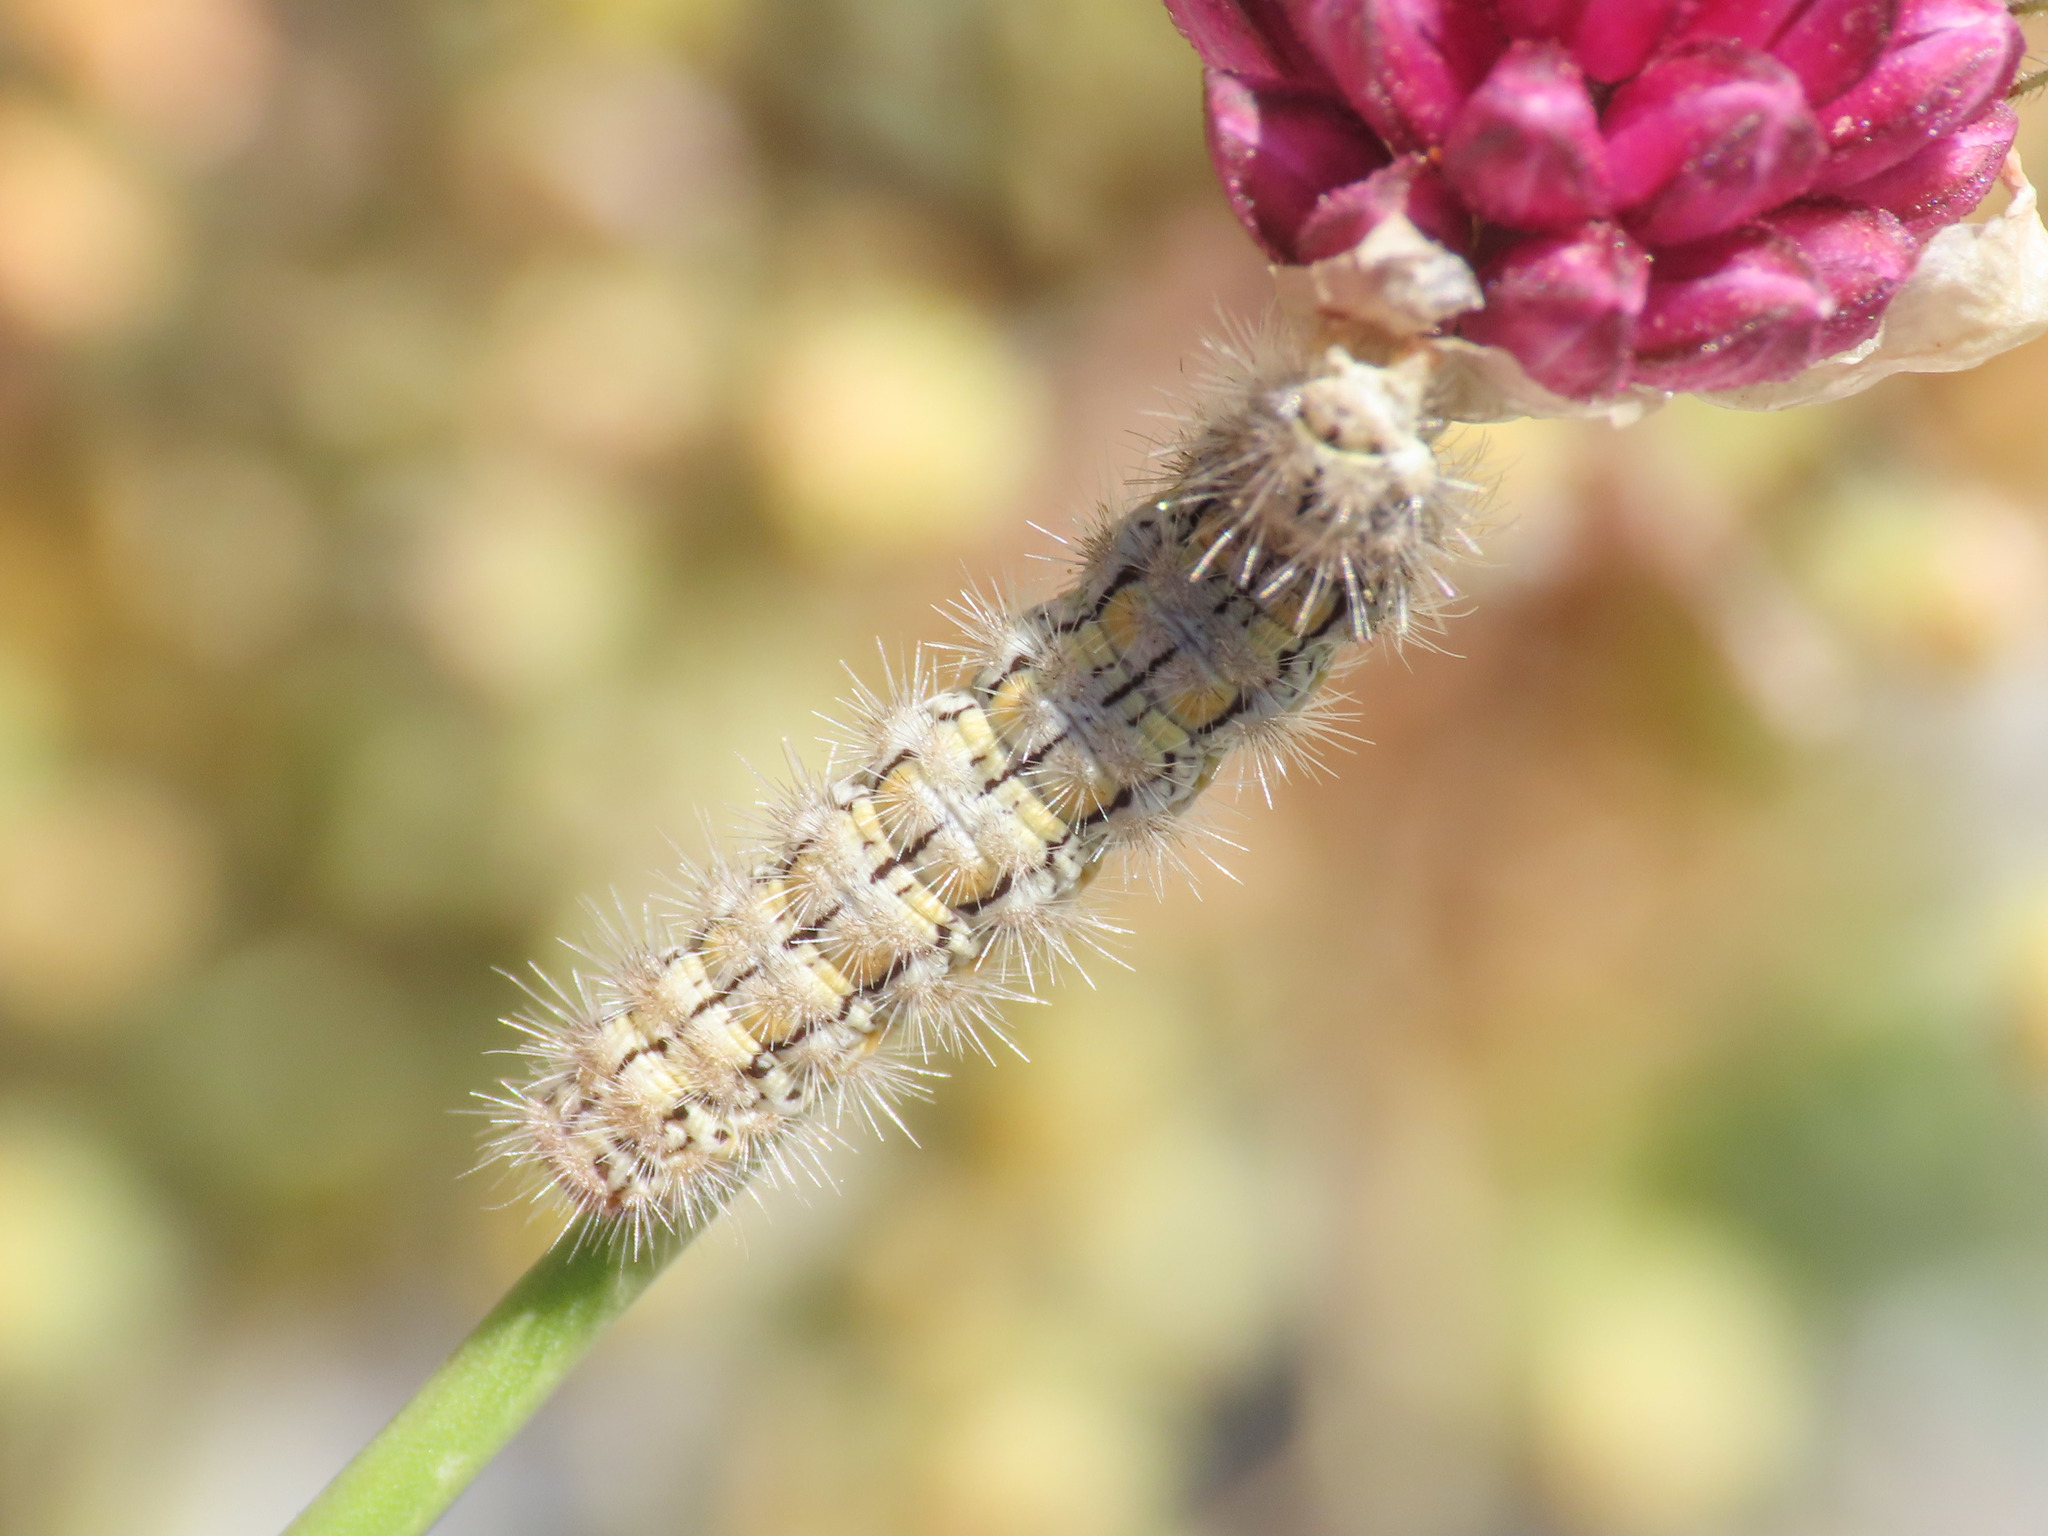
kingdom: Animalia
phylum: Arthropoda
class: Insecta
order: Lepidoptera
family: Erebidae
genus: Manulea
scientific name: Manulea palliatella
